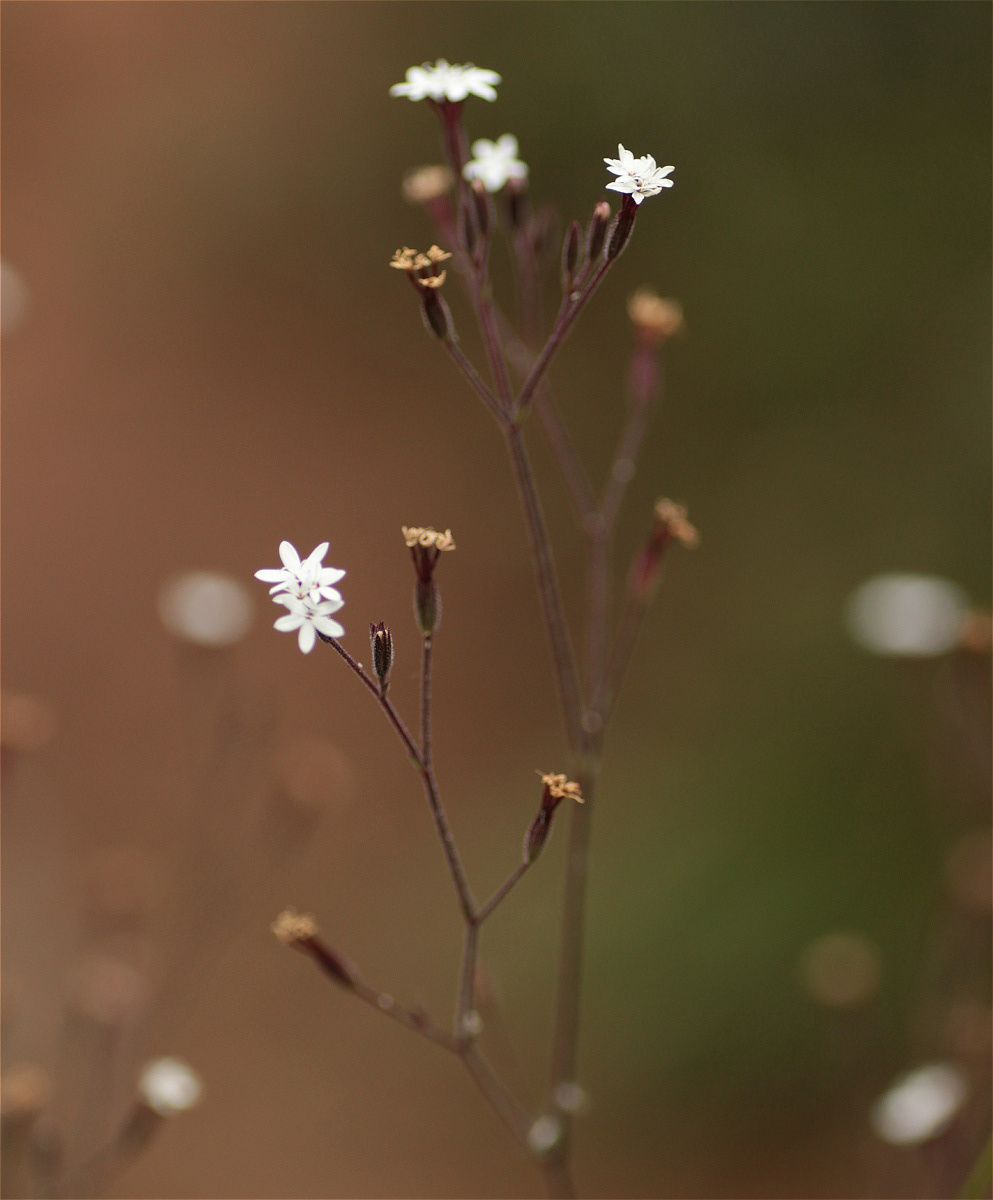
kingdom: Plantae
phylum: Tracheophyta
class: Magnoliopsida
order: Asterales
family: Asteraceae
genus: Stevia
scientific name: Stevia elatior
